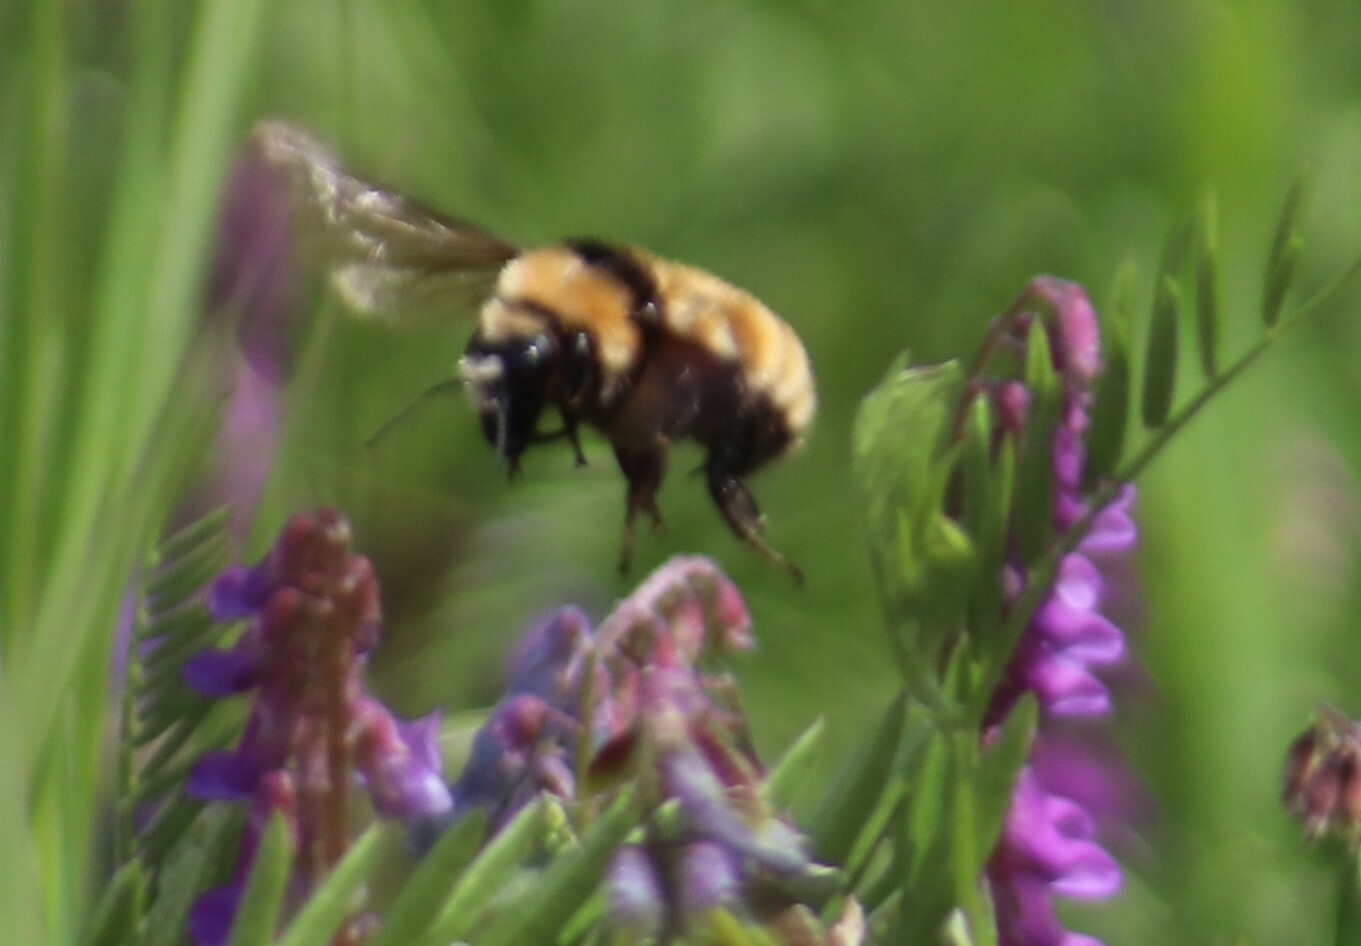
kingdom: Animalia
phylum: Arthropoda
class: Insecta
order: Hymenoptera
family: Apidae
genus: Bombus
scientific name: Bombus borealis
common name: Northern amber bumble bee
